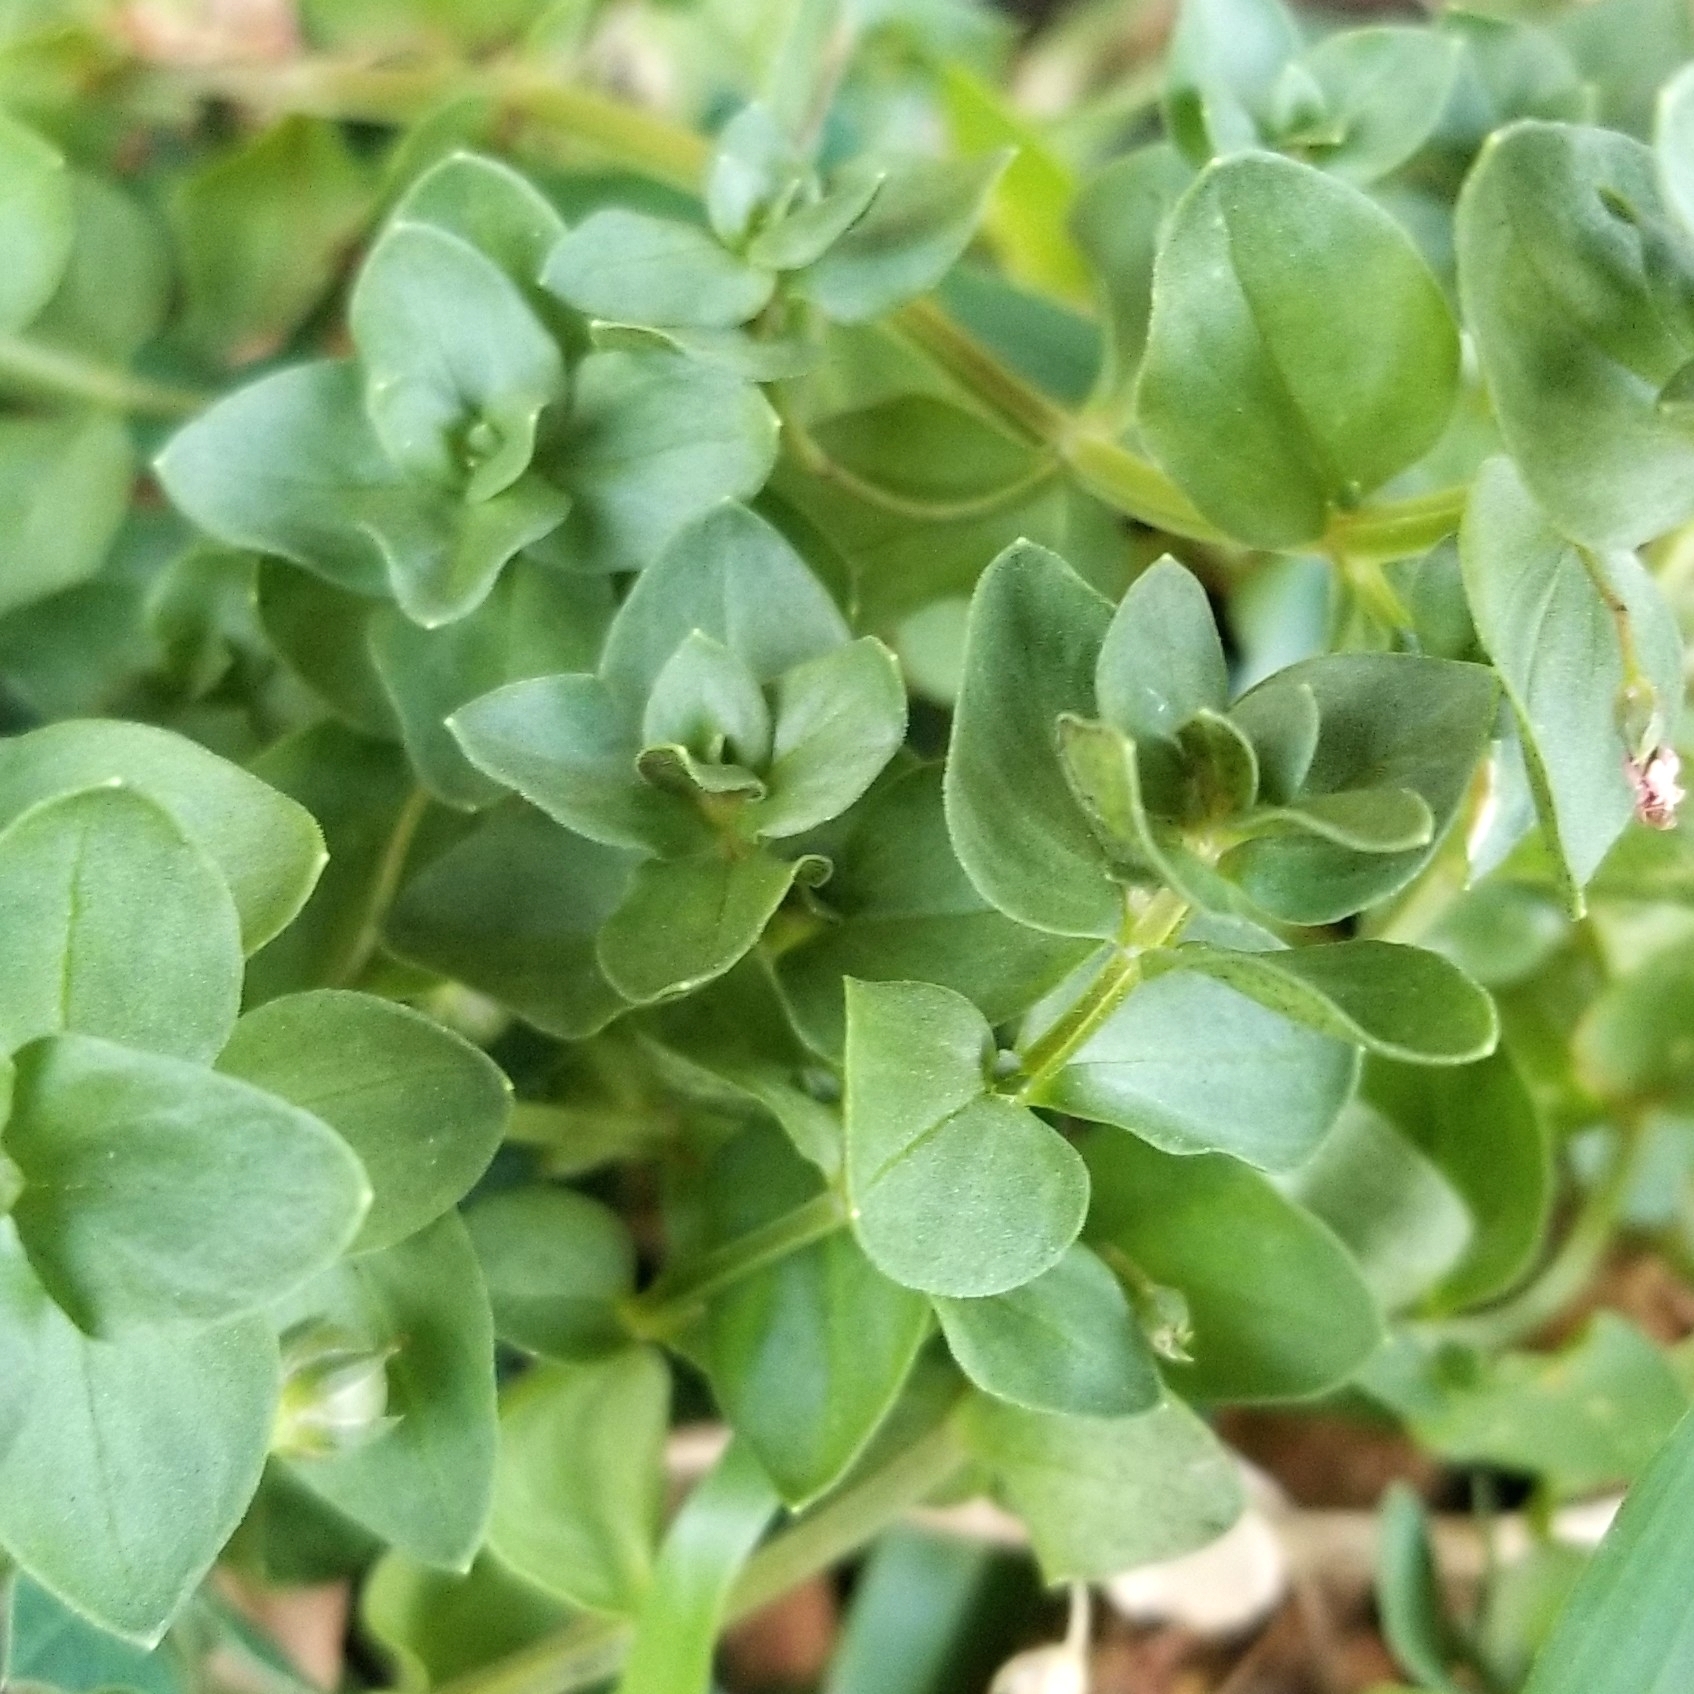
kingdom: Plantae
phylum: Tracheophyta
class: Magnoliopsida
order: Ericales
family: Primulaceae
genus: Lysimachia
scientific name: Lysimachia arvensis
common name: Scarlet pimpernel
